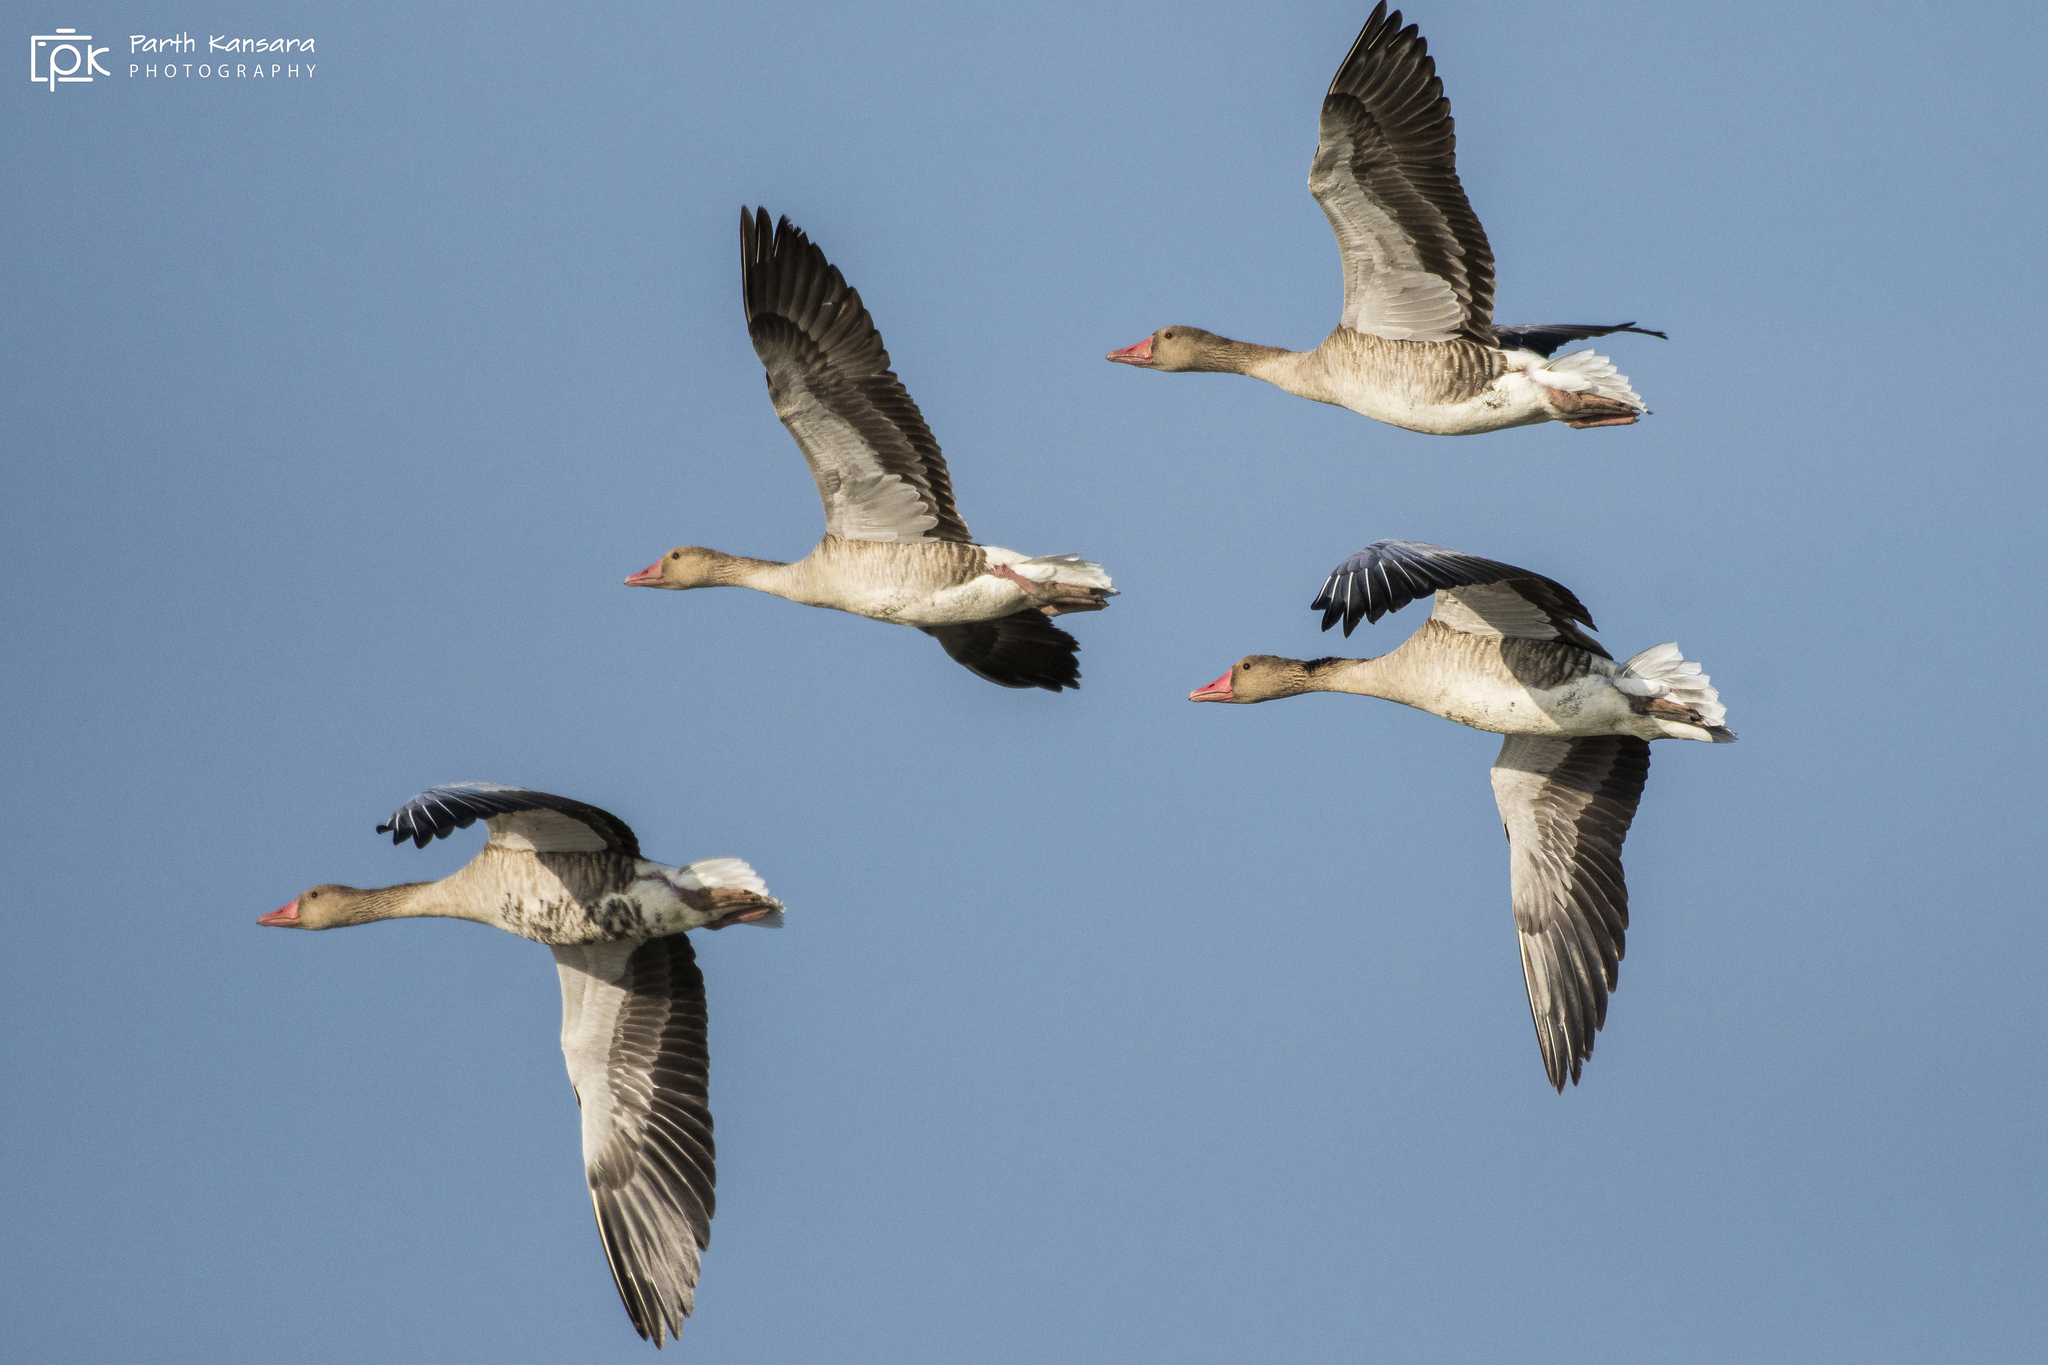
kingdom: Animalia
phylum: Chordata
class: Aves
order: Anseriformes
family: Anatidae
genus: Anser
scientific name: Anser anser
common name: Greylag goose
